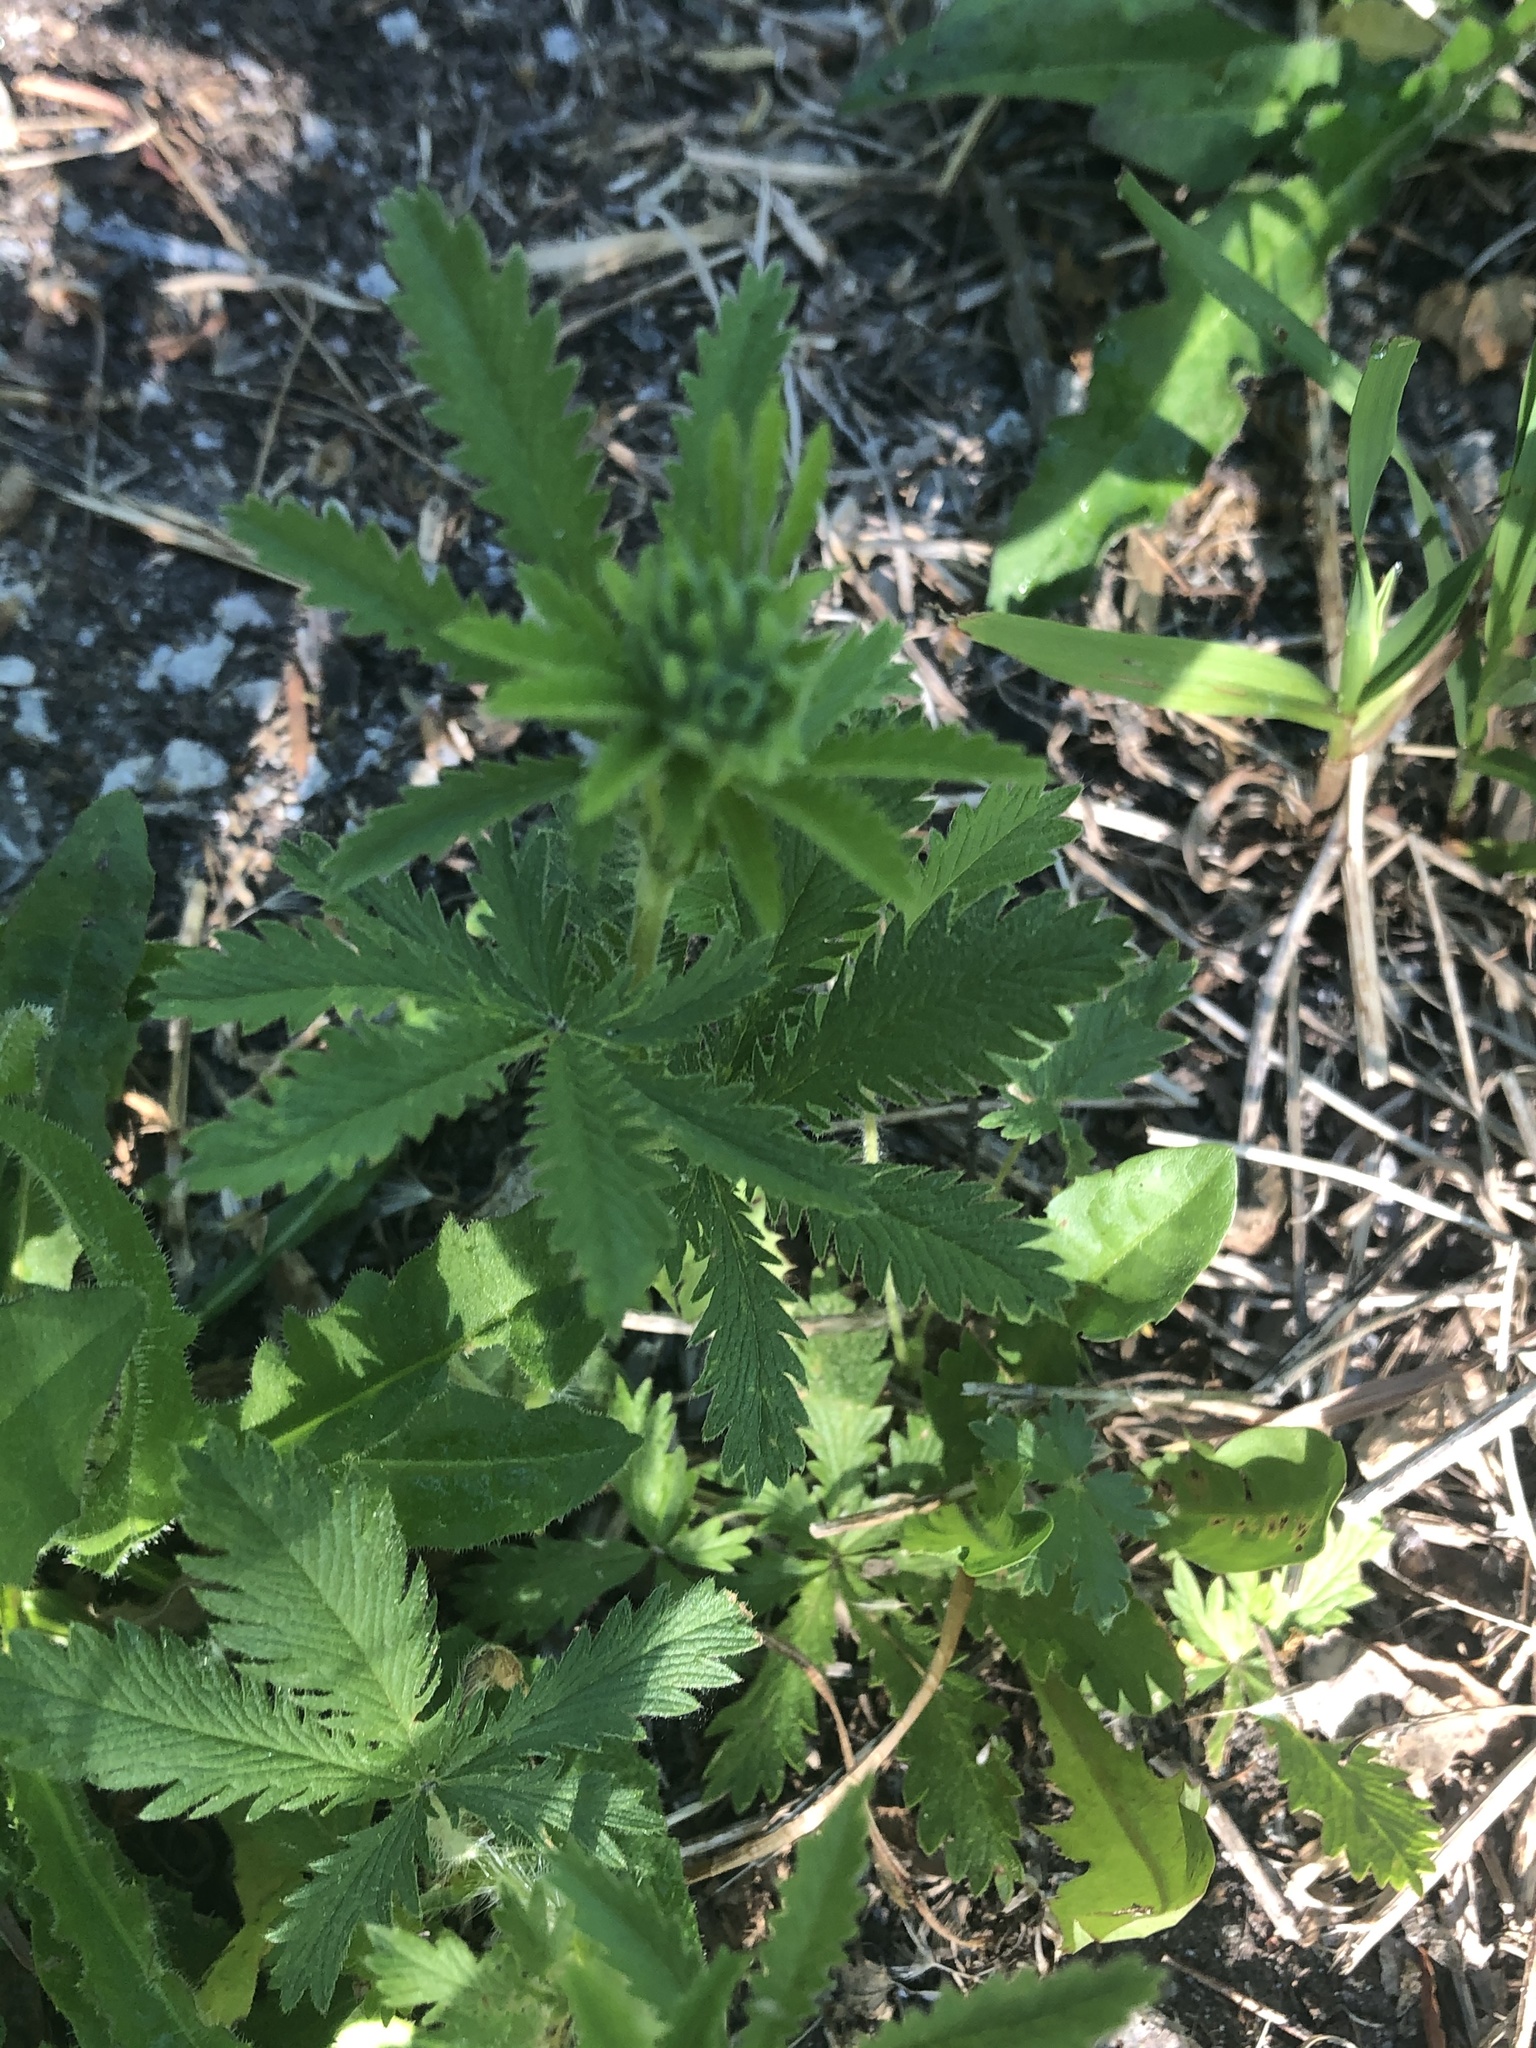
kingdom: Plantae
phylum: Tracheophyta
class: Magnoliopsida
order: Rosales
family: Rosaceae
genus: Potentilla
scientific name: Potentilla recta
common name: Sulphur cinquefoil
